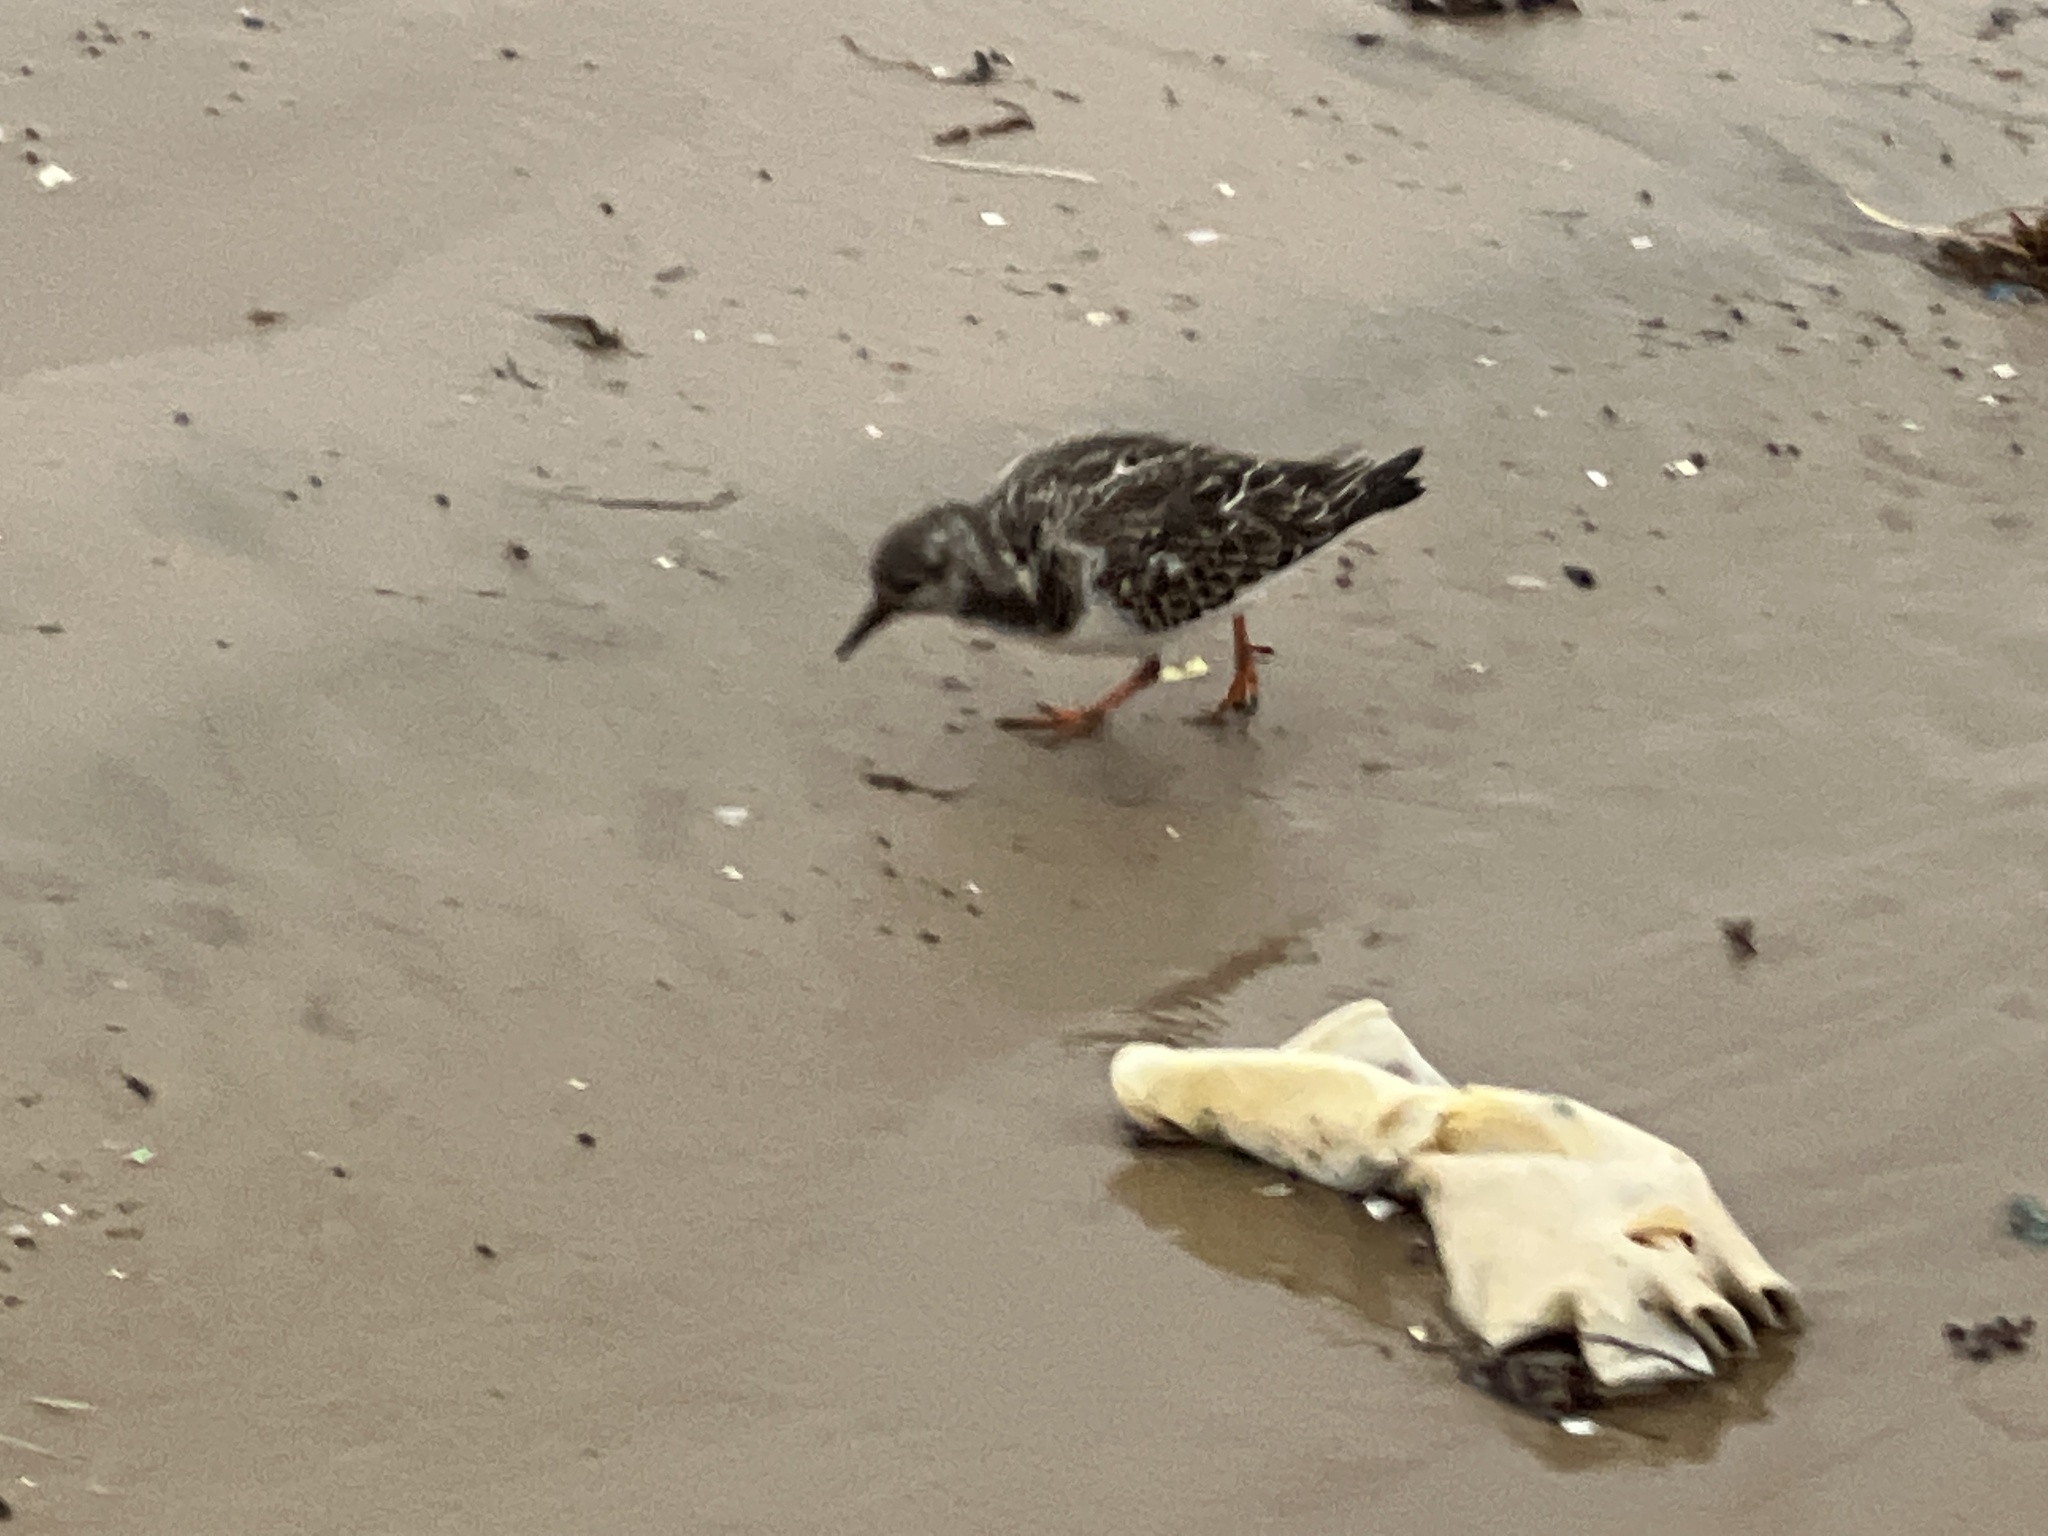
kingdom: Animalia
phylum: Chordata
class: Aves
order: Charadriiformes
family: Scolopacidae
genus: Arenaria
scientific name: Arenaria interpres
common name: Ruddy turnstone
